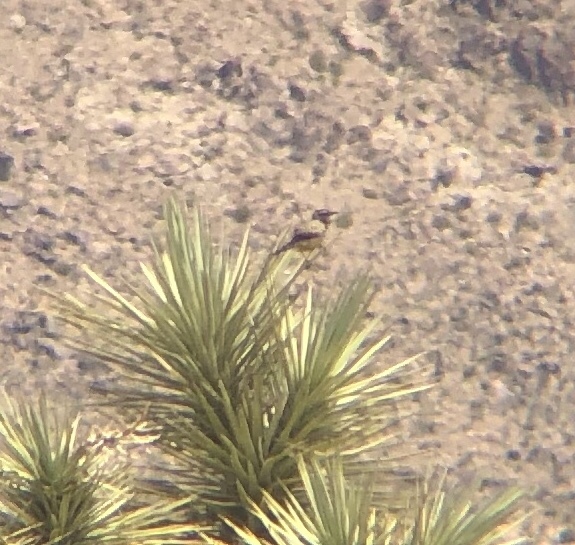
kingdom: Animalia
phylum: Chordata
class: Aves
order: Passeriformes
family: Troglodytidae
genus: Campylorhynchus
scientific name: Campylorhynchus brunneicapillus
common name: Cactus wren
